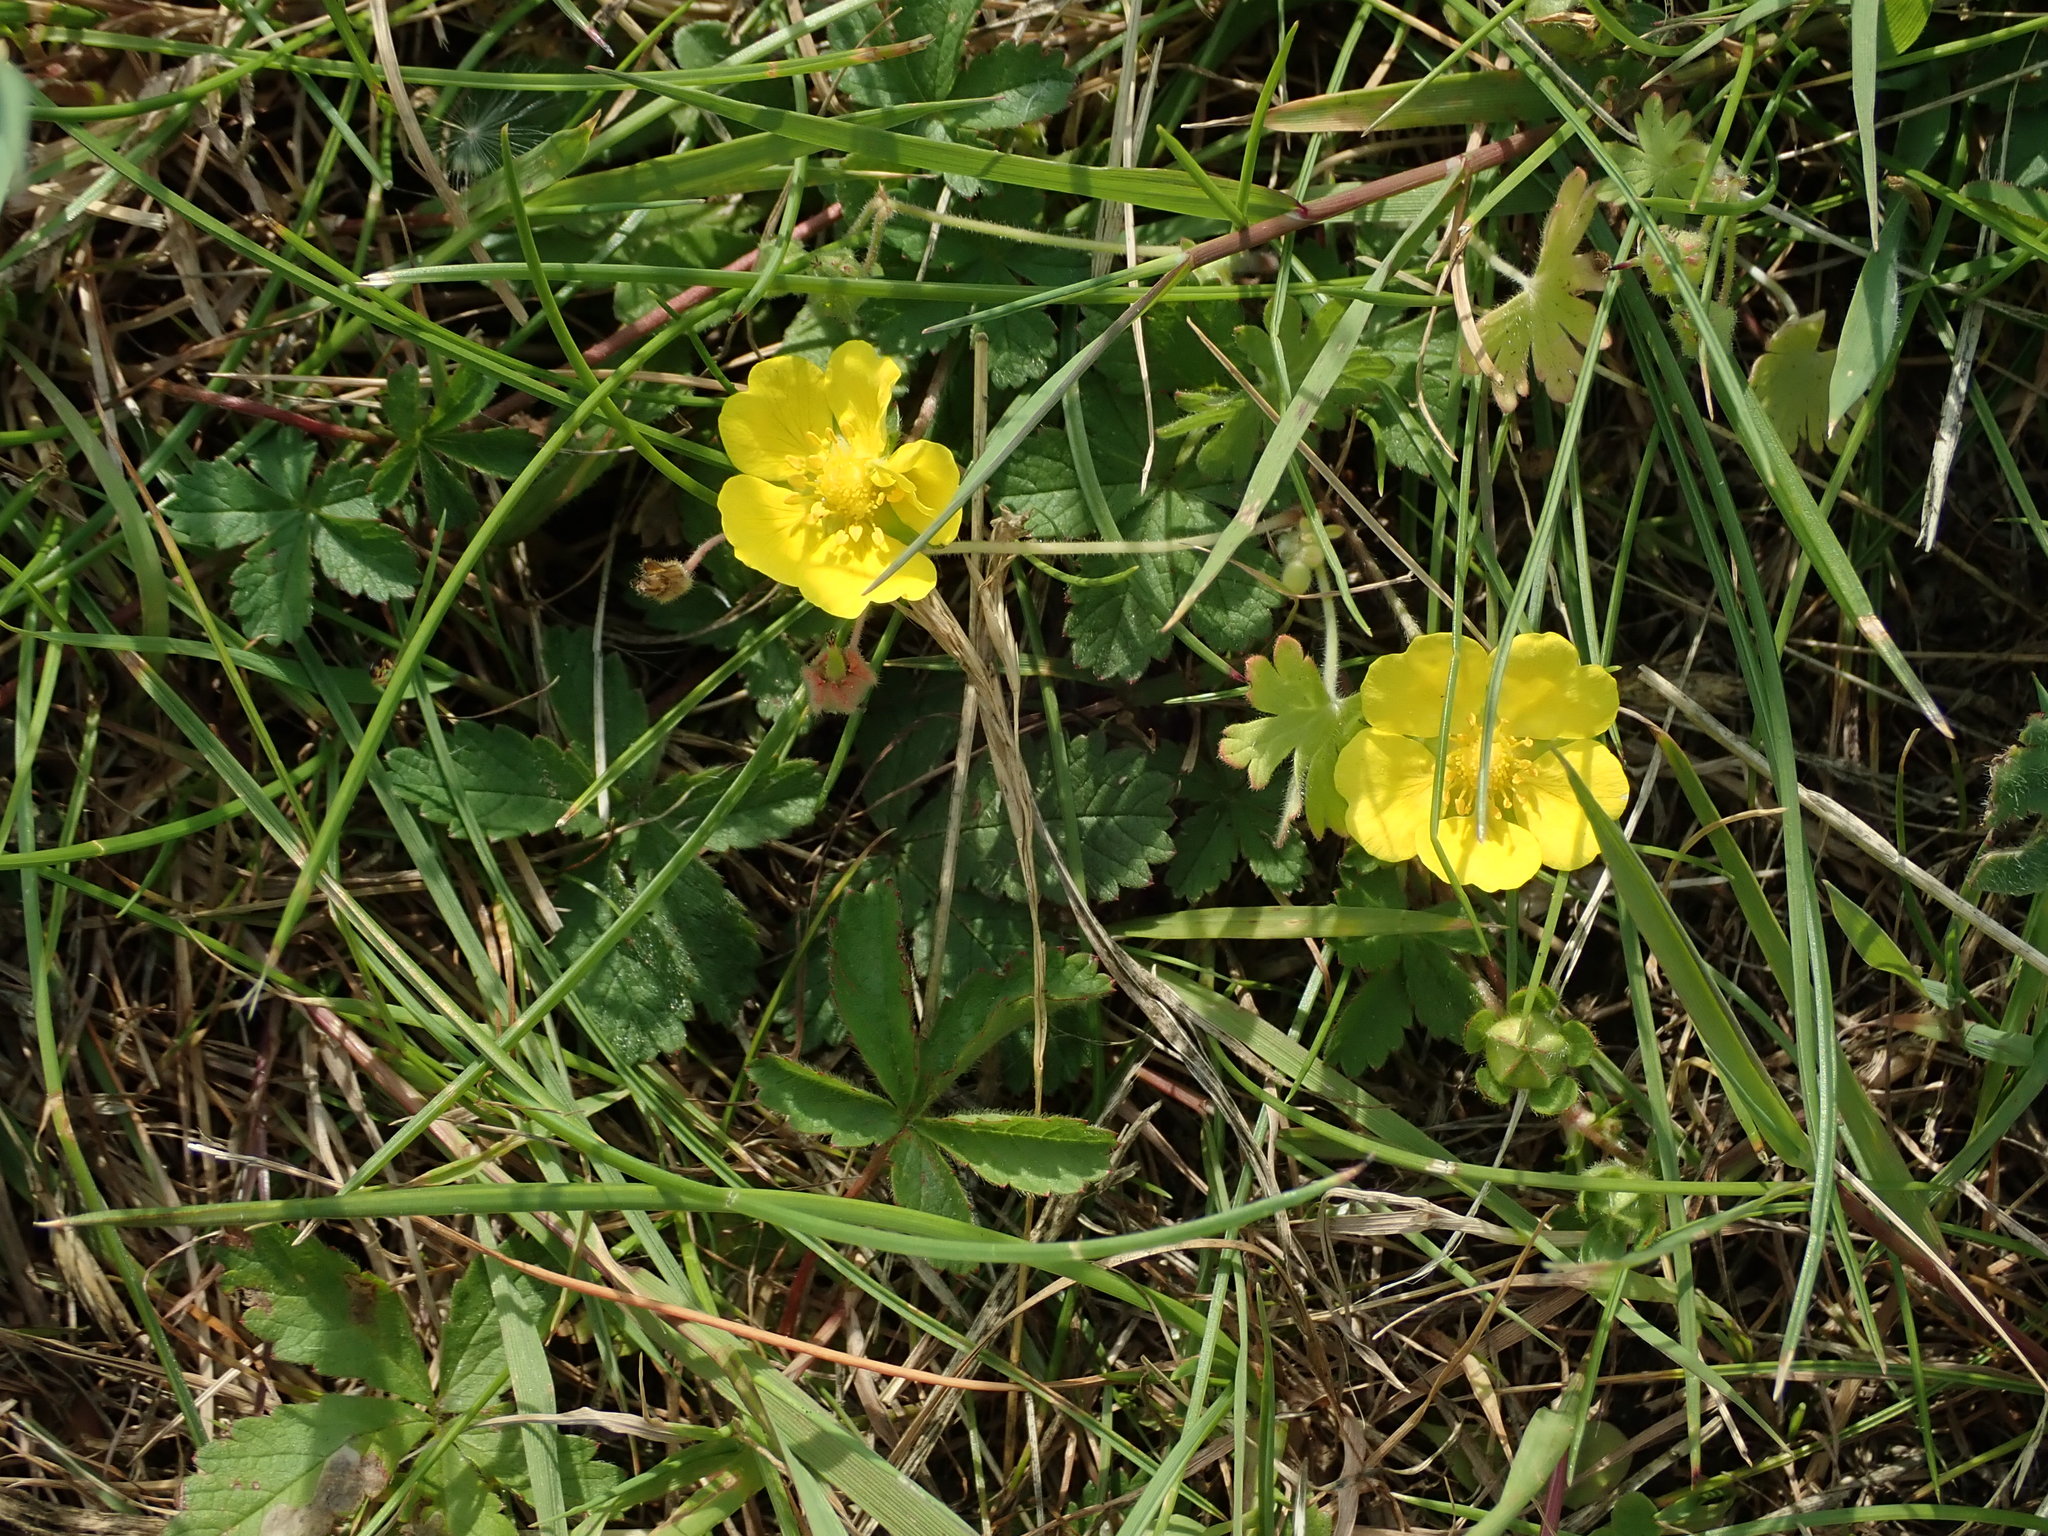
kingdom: Plantae
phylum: Tracheophyta
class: Magnoliopsida
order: Rosales
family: Rosaceae
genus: Potentilla
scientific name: Potentilla reptans
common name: Creeping cinquefoil
